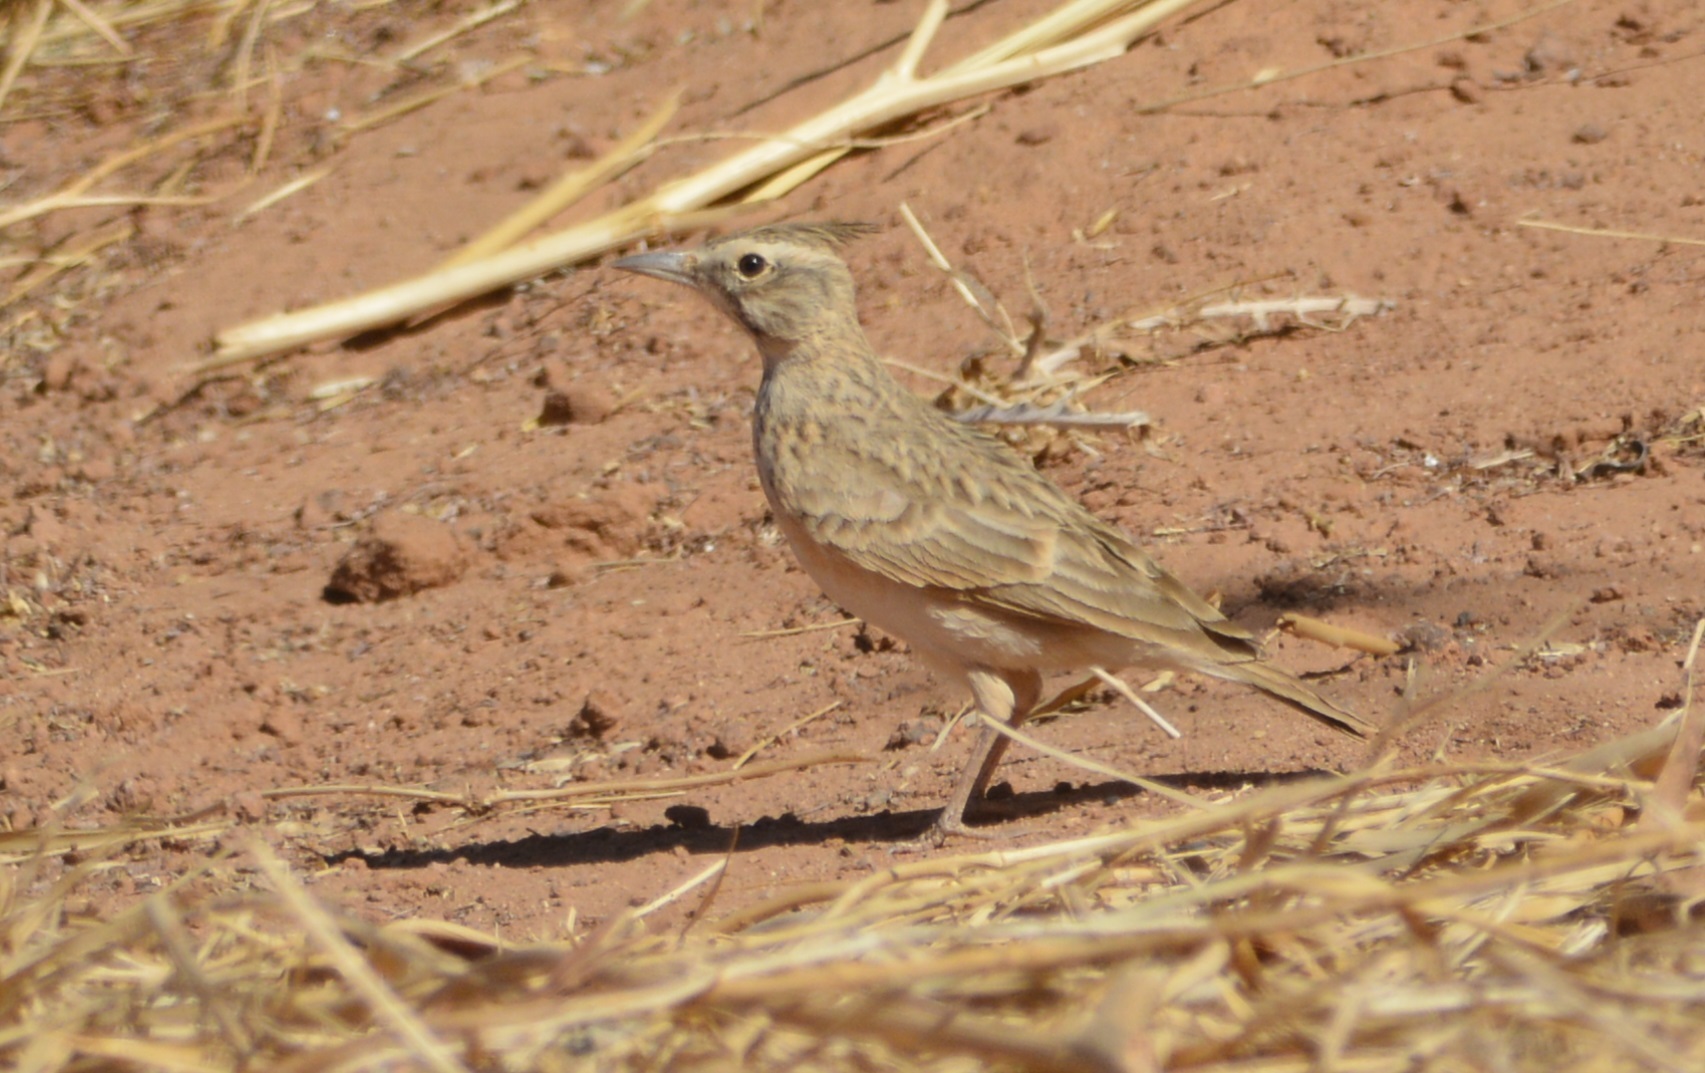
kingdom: Animalia
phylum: Chordata
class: Aves
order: Passeriformes
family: Alaudidae
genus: Galerida
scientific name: Galerida cristata
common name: Crested lark
